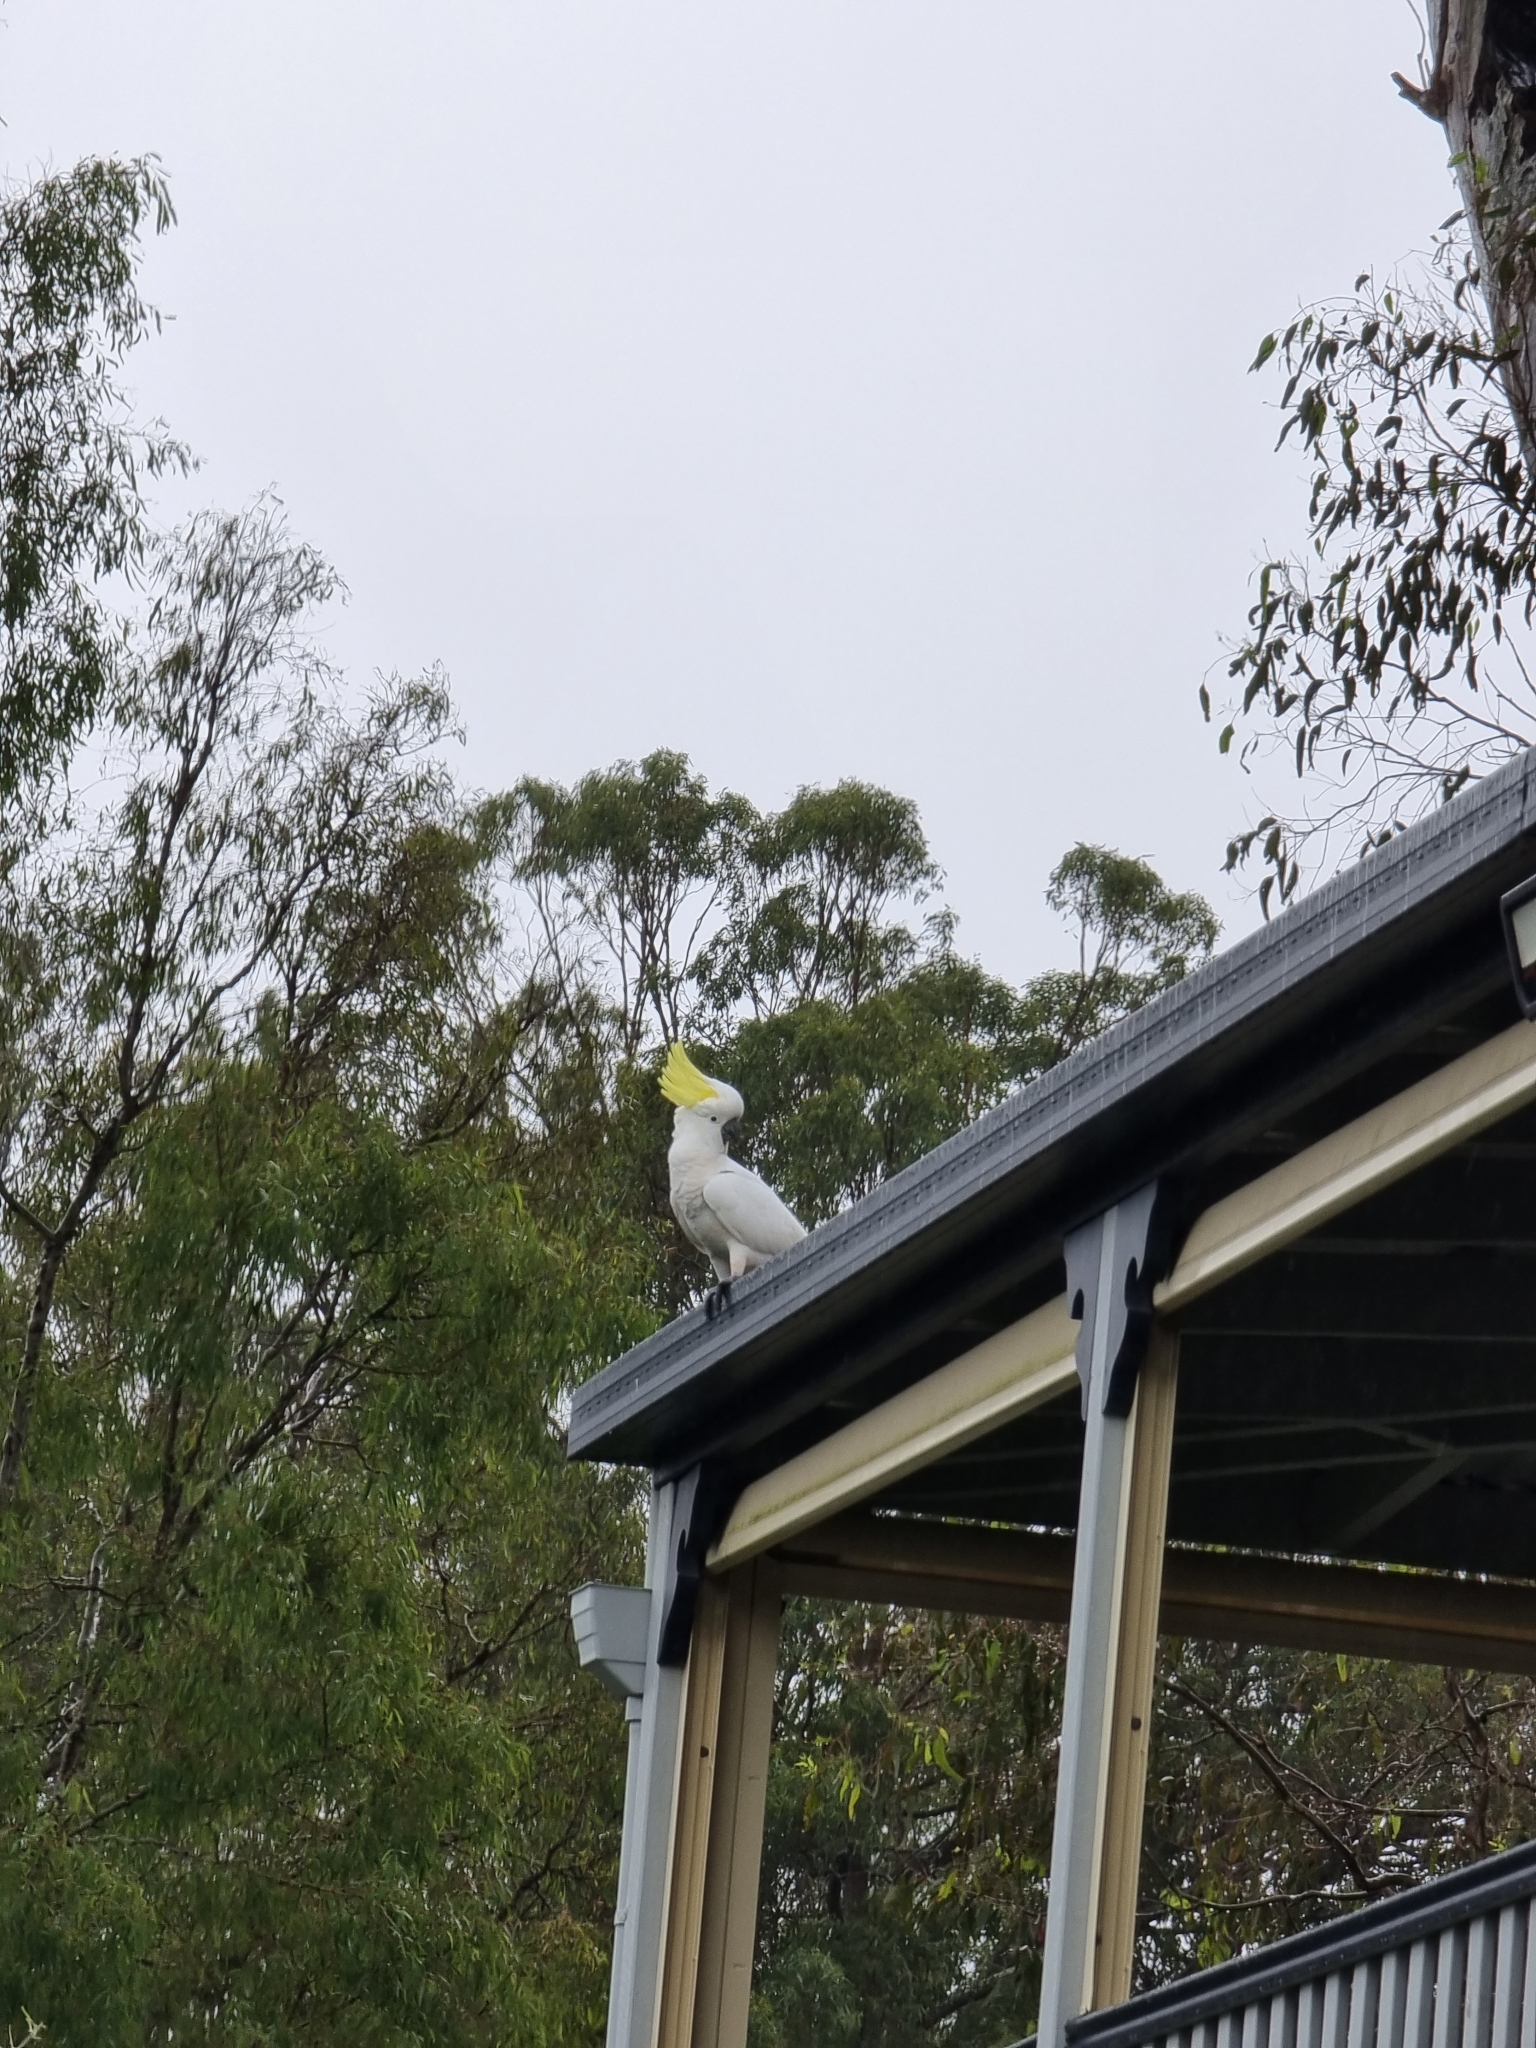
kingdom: Animalia
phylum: Chordata
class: Aves
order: Psittaciformes
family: Psittacidae
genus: Cacatua
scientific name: Cacatua galerita
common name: Sulphur-crested cockatoo
